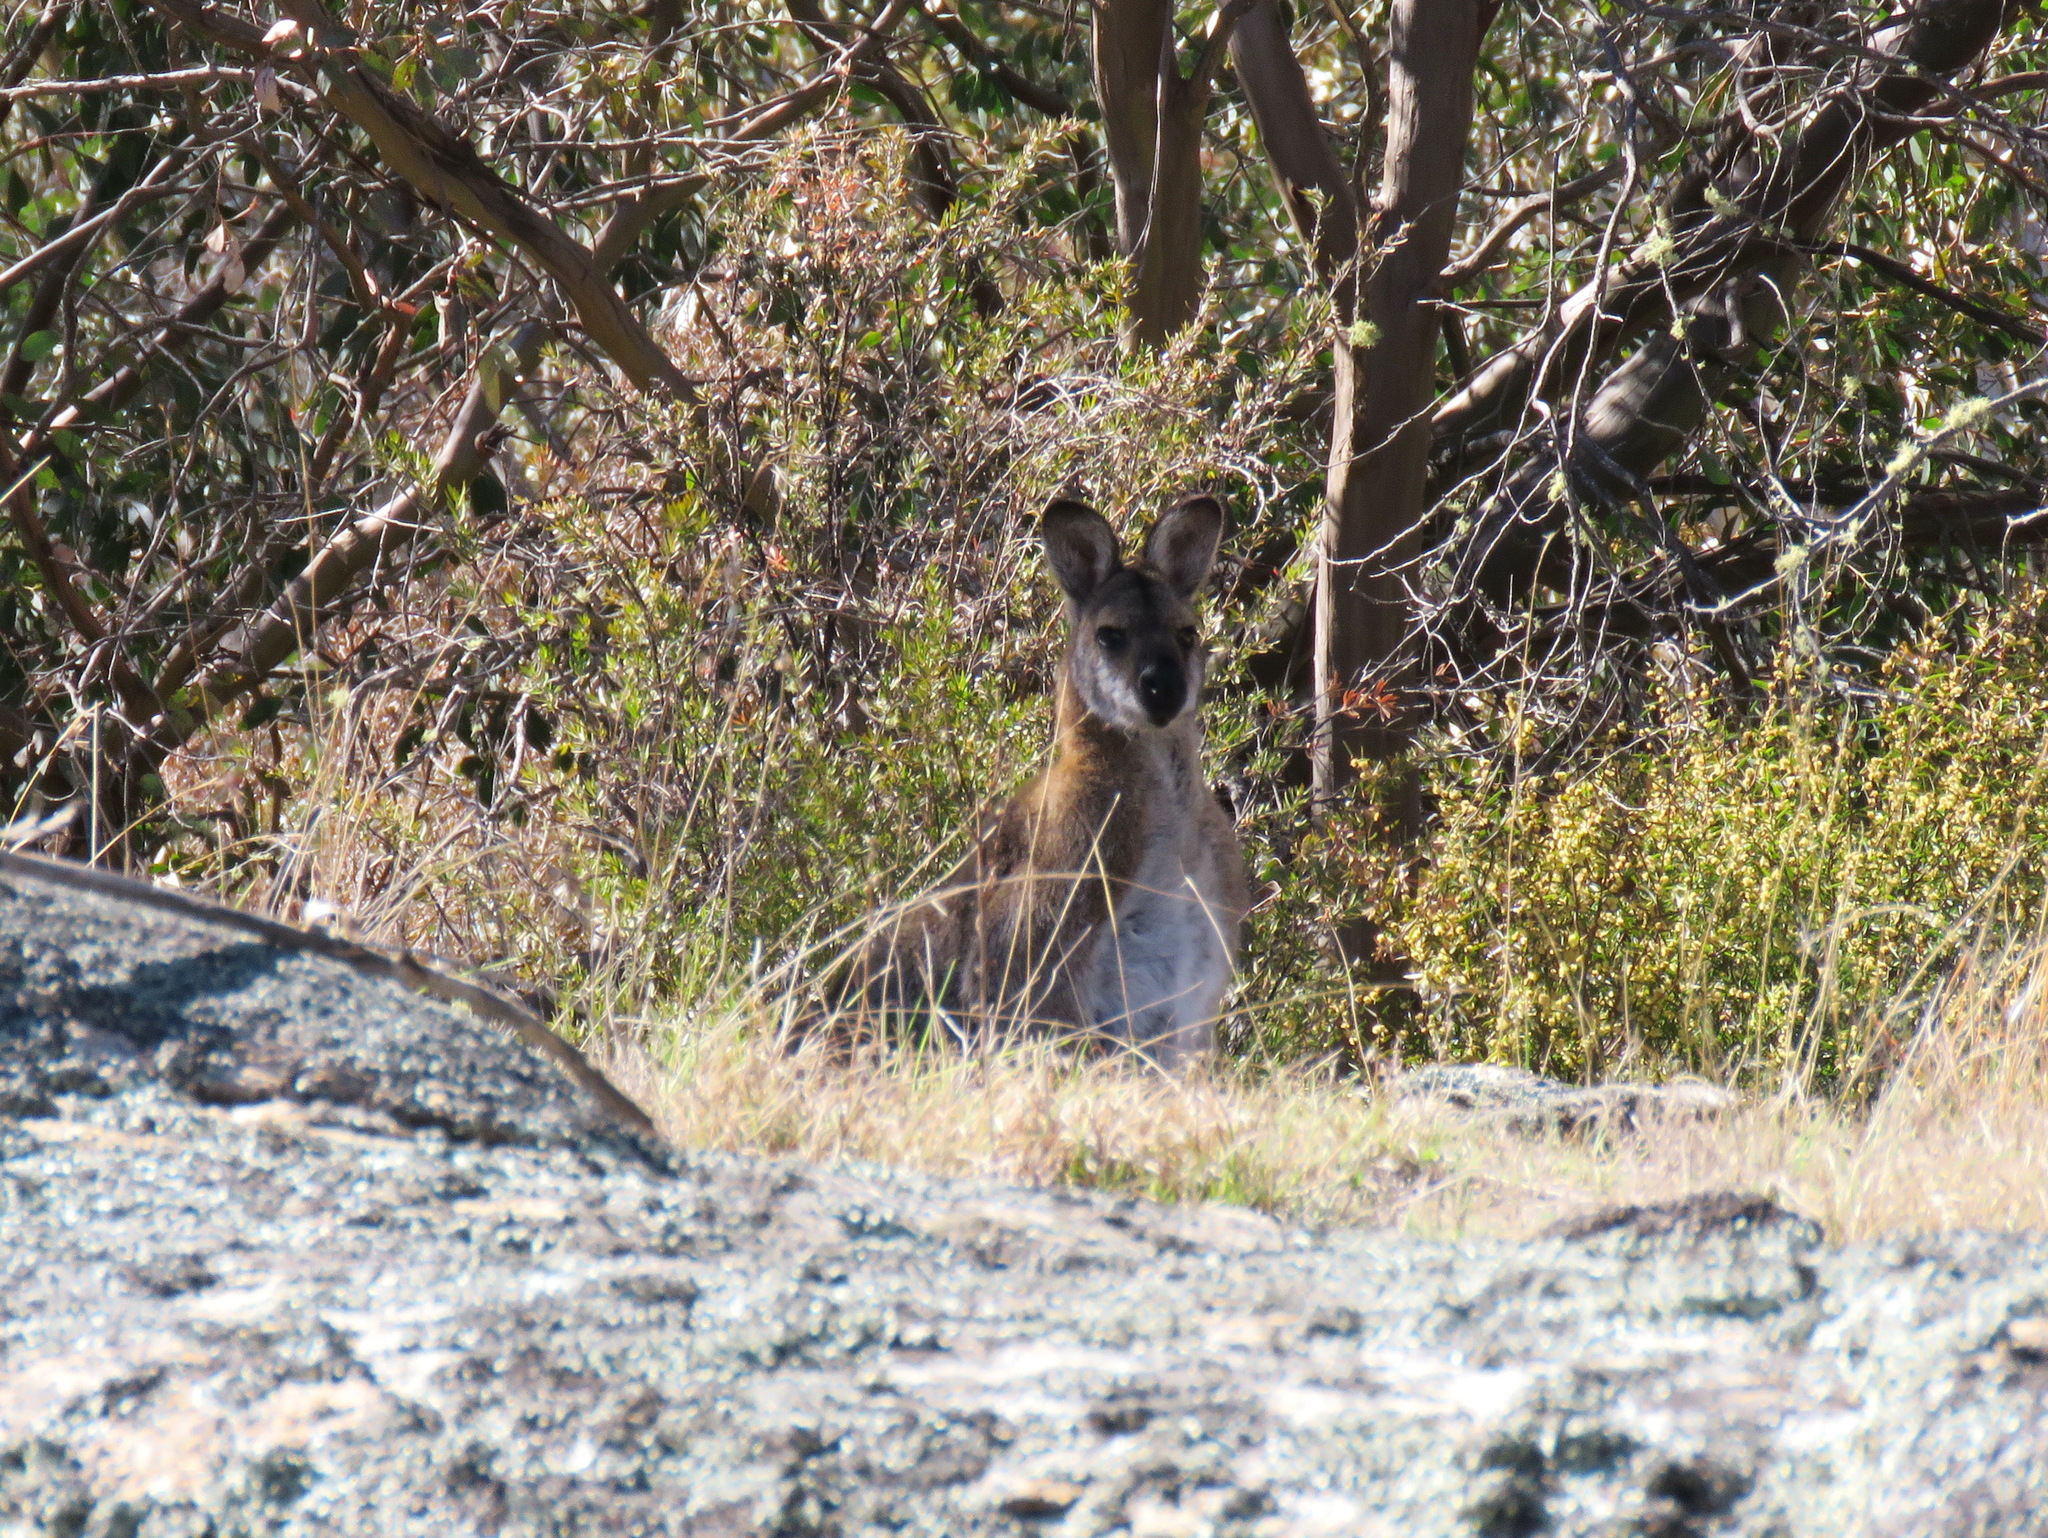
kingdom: Animalia
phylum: Chordata
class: Mammalia
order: Diprotodontia
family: Macropodidae
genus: Notamacropus
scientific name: Notamacropus rufogriseus
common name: Red-necked wallaby
